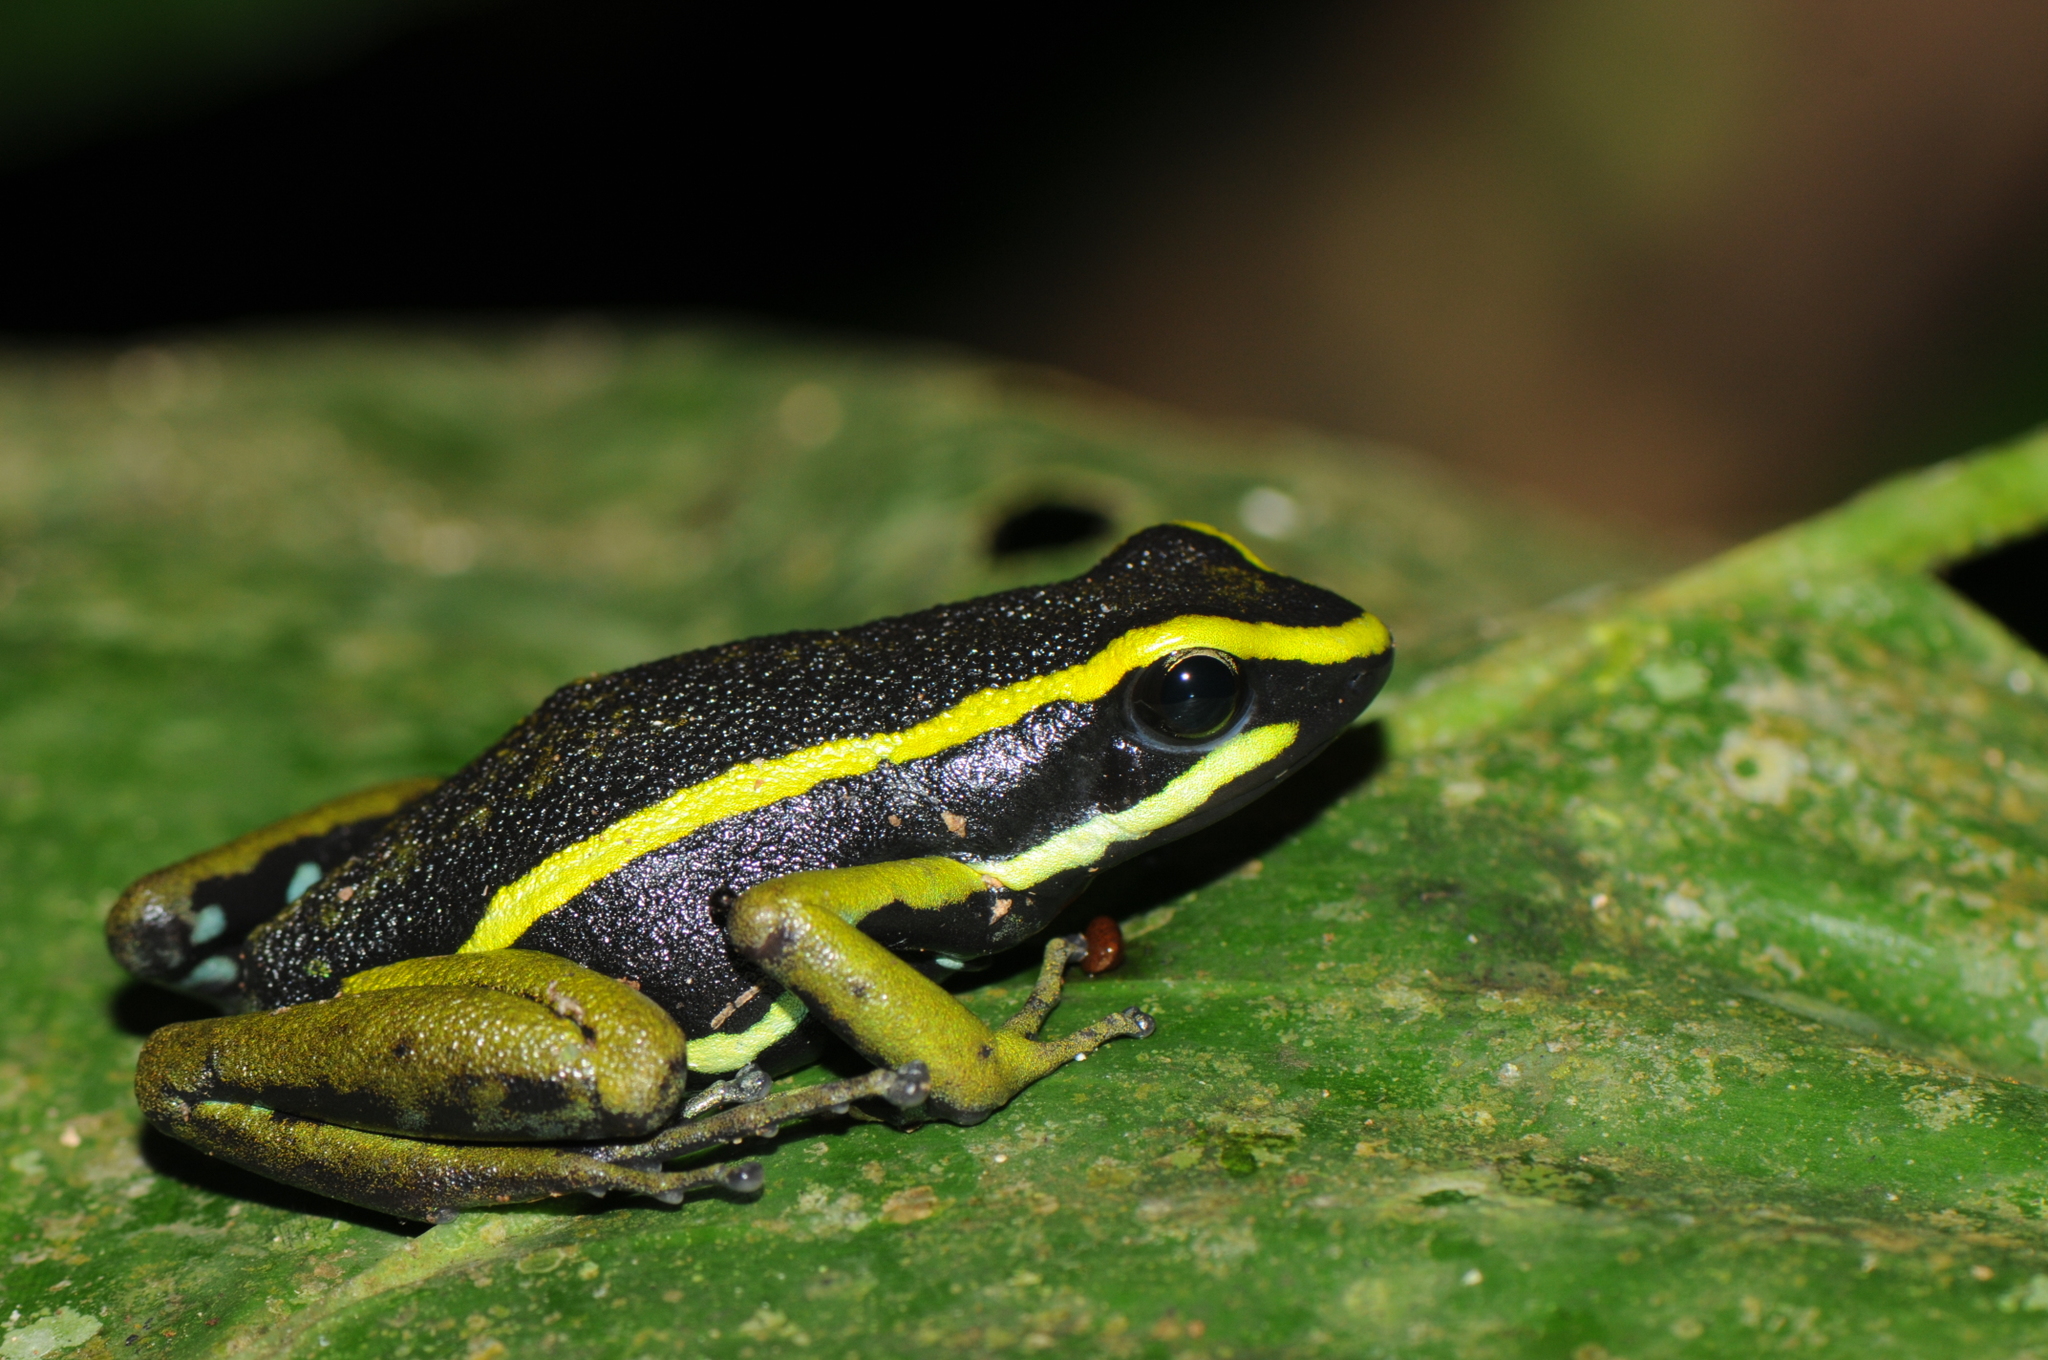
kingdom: Animalia
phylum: Chordata
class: Amphibia
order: Anura
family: Dendrobatidae
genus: Ameerega
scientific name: Ameerega trivittata
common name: Three-striped arrow-poison frog
